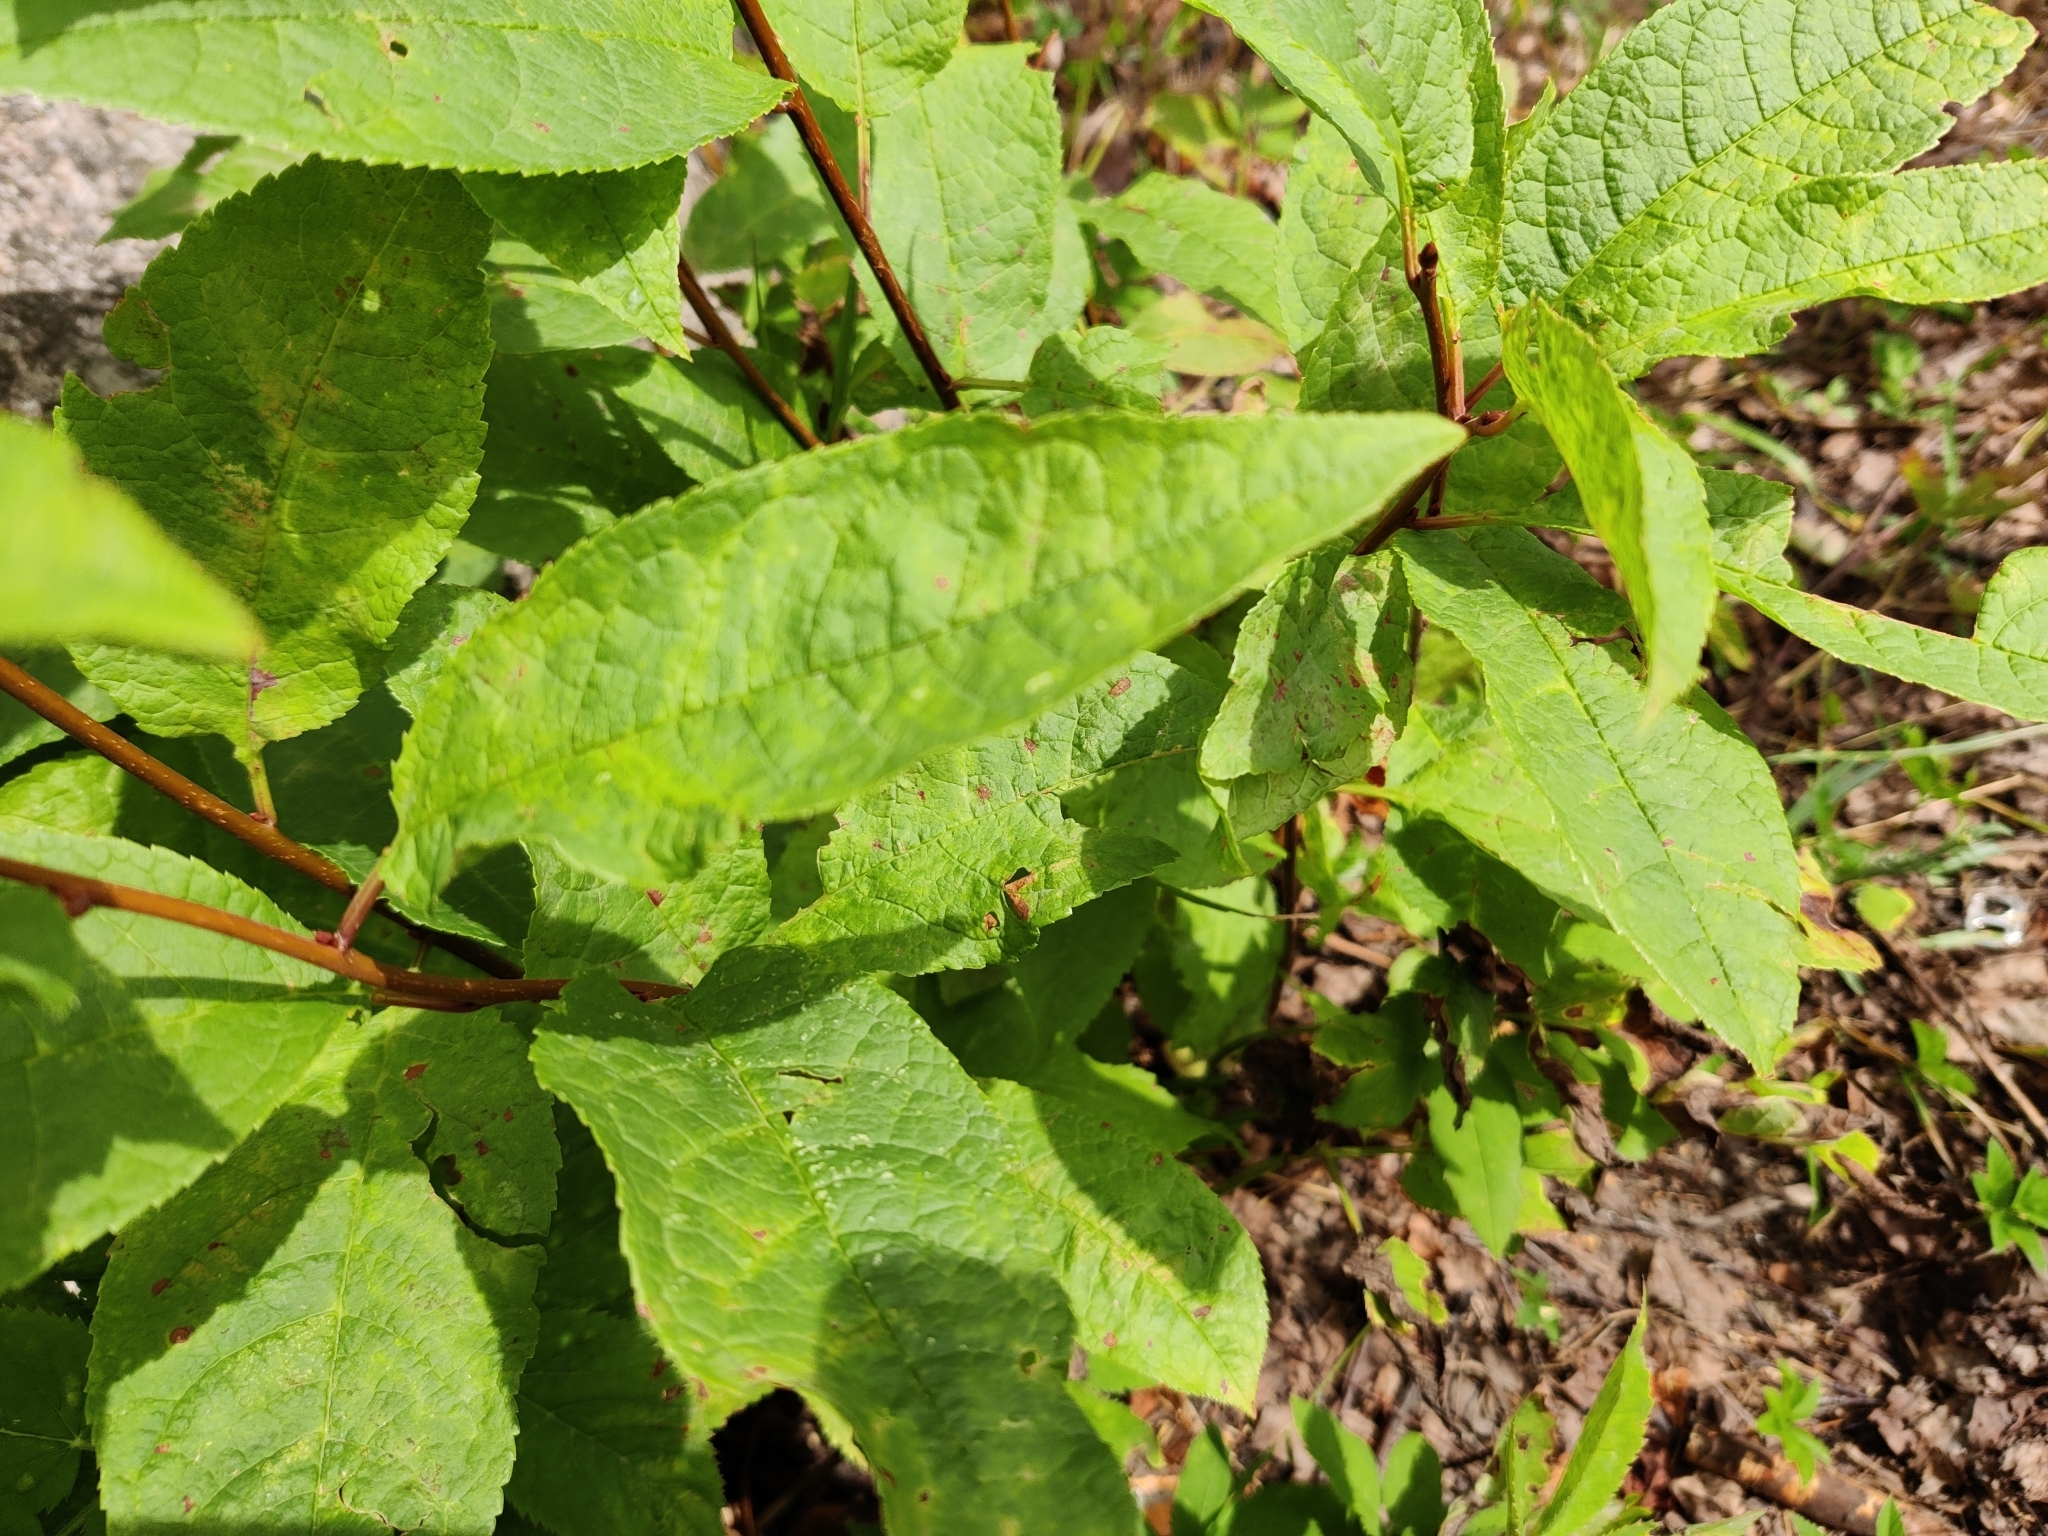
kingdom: Plantae
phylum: Tracheophyta
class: Magnoliopsida
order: Lamiales
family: Scrophulariaceae
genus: Scrophularia
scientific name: Scrophularia nodosa
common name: Common figwort
